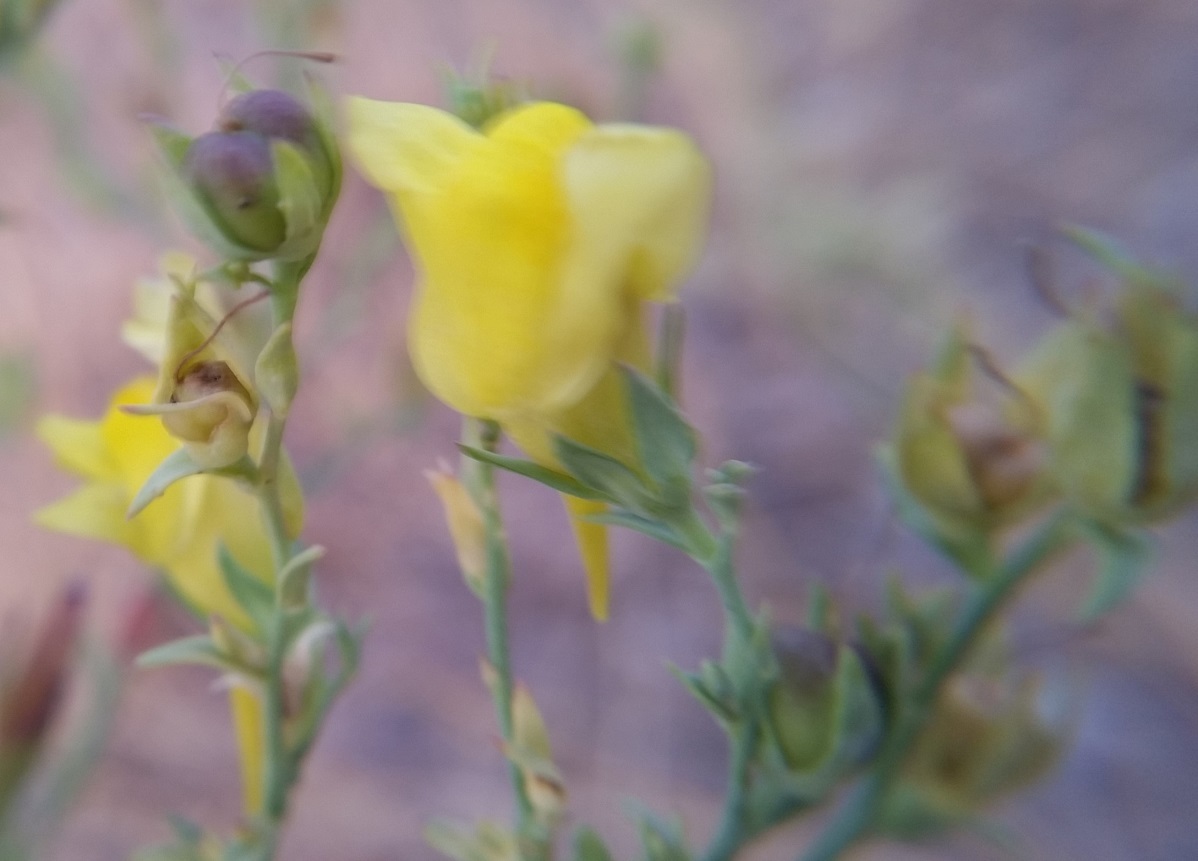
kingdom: Plantae
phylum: Tracheophyta
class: Magnoliopsida
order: Lamiales
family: Plantaginaceae
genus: Linaria
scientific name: Linaria dalmatica
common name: Dalmatian toadflax
